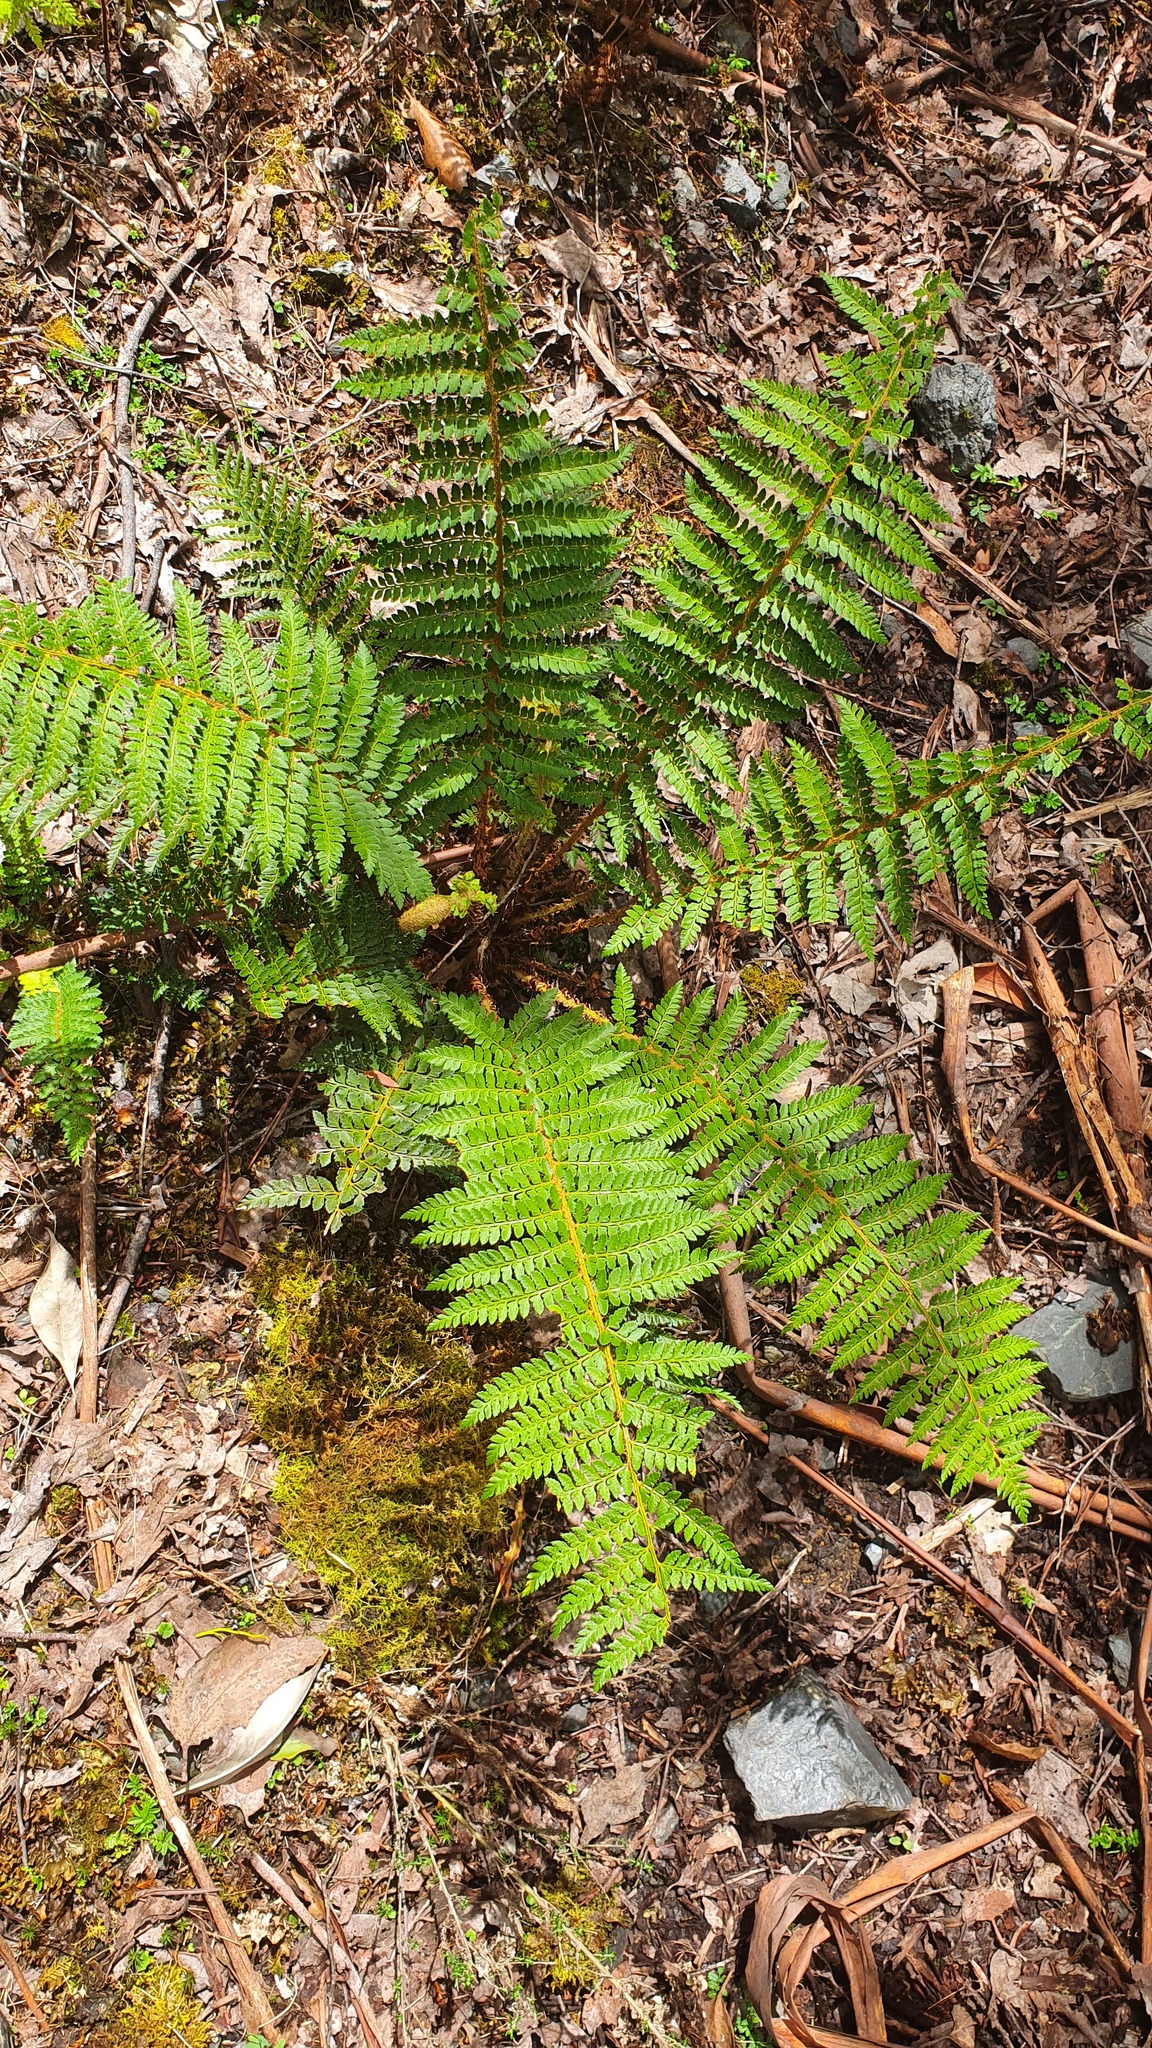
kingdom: Plantae
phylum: Tracheophyta
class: Polypodiopsida
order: Polypodiales
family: Dryopteridaceae
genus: Polystichum
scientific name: Polystichum proliferum
